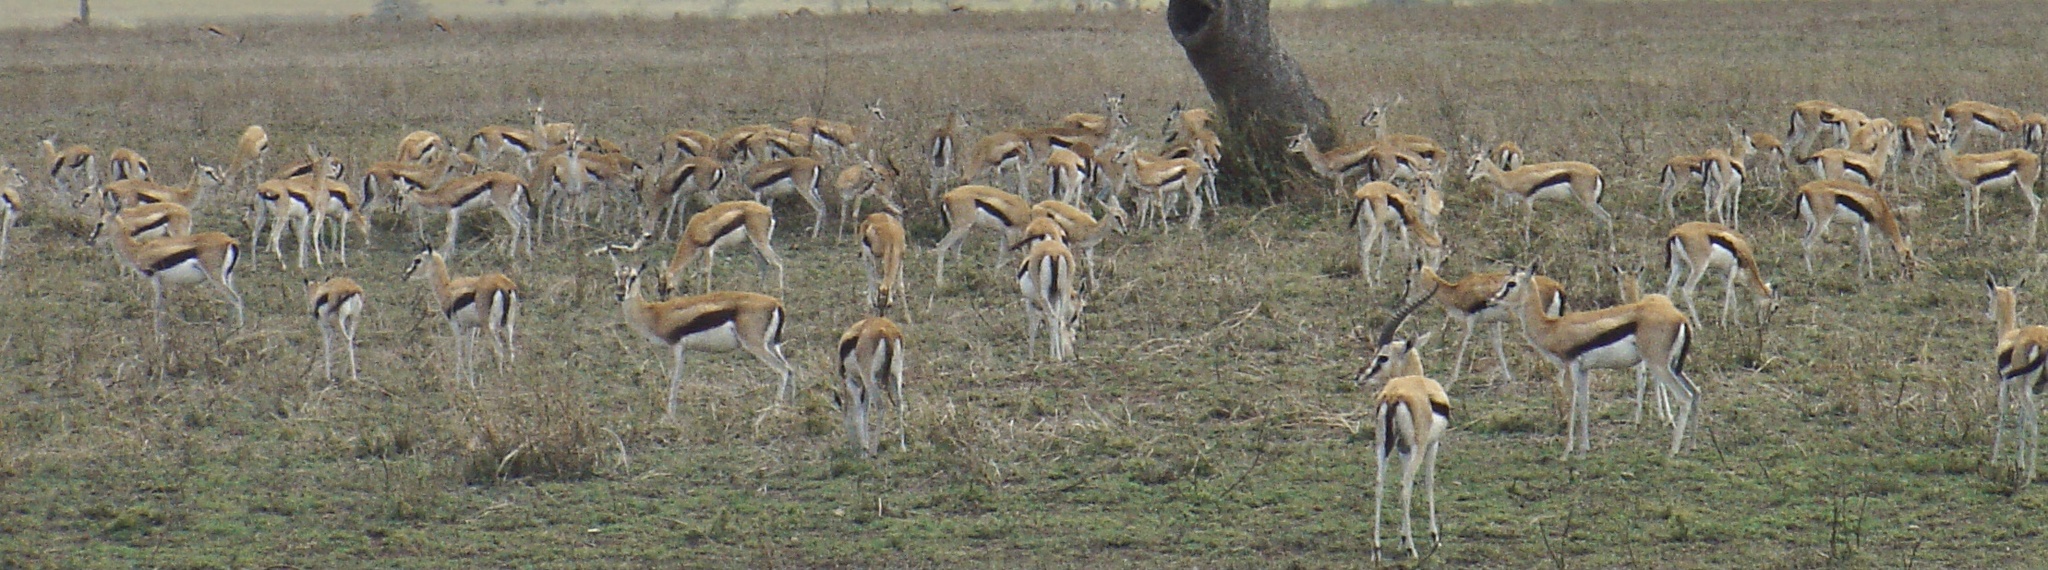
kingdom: Animalia
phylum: Chordata
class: Mammalia
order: Artiodactyla
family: Bovidae
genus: Eudorcas
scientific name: Eudorcas thomsonii
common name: Thomson's gazelle
